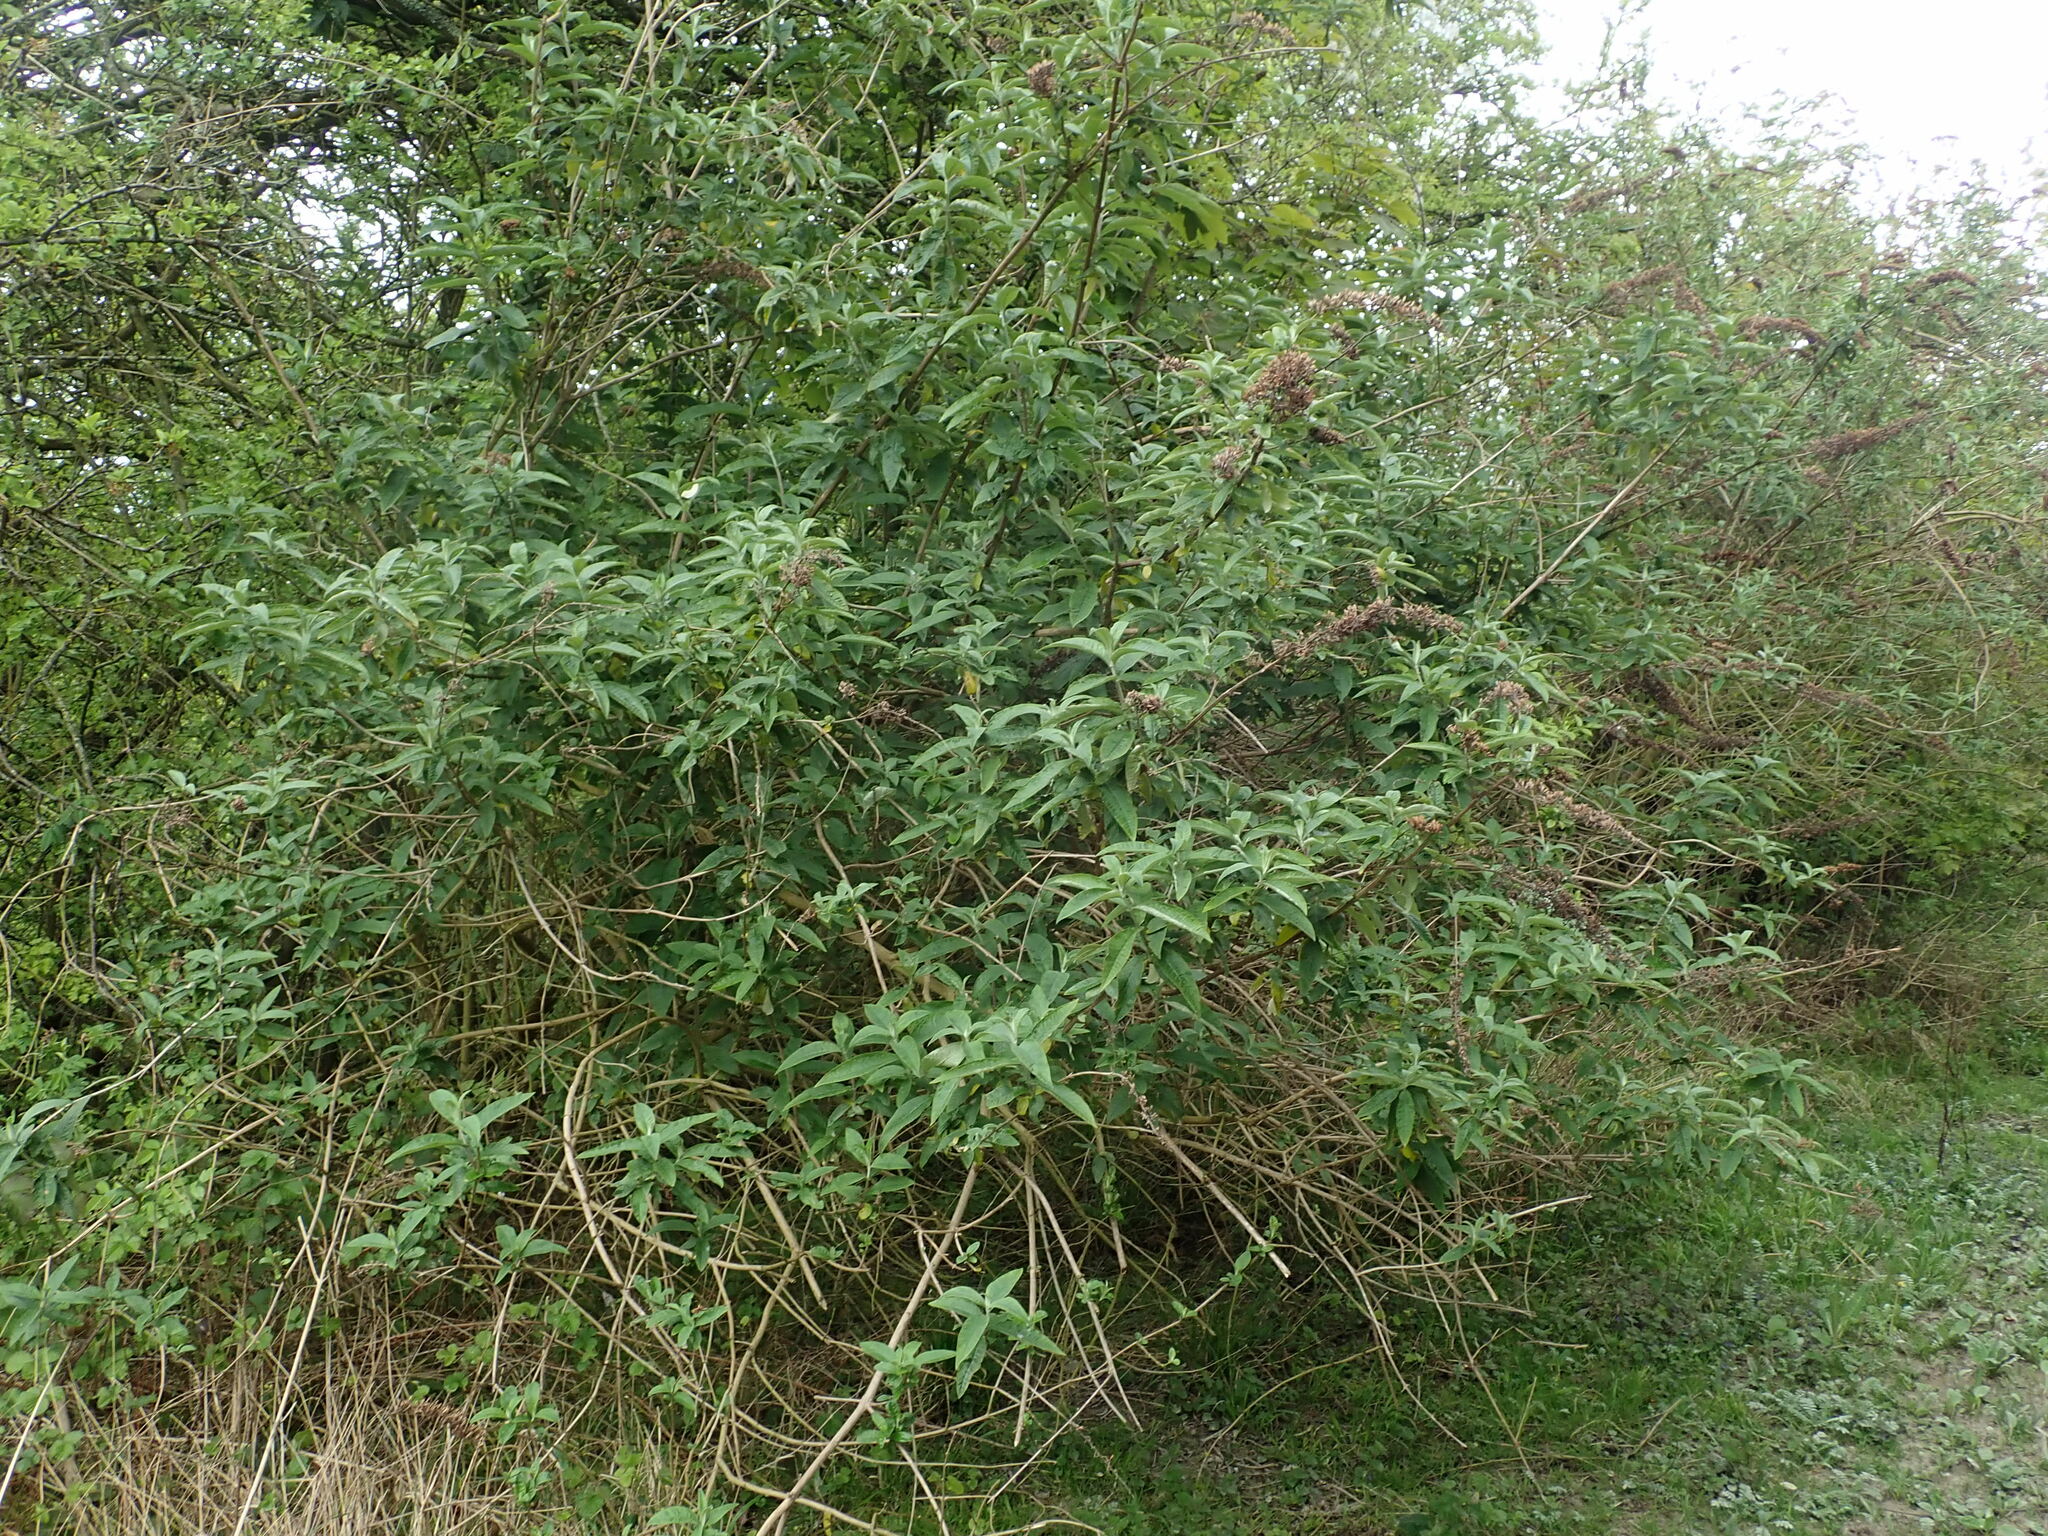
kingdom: Plantae
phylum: Tracheophyta
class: Magnoliopsida
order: Lamiales
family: Scrophulariaceae
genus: Buddleja
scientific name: Buddleja davidii
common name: Butterfly-bush
